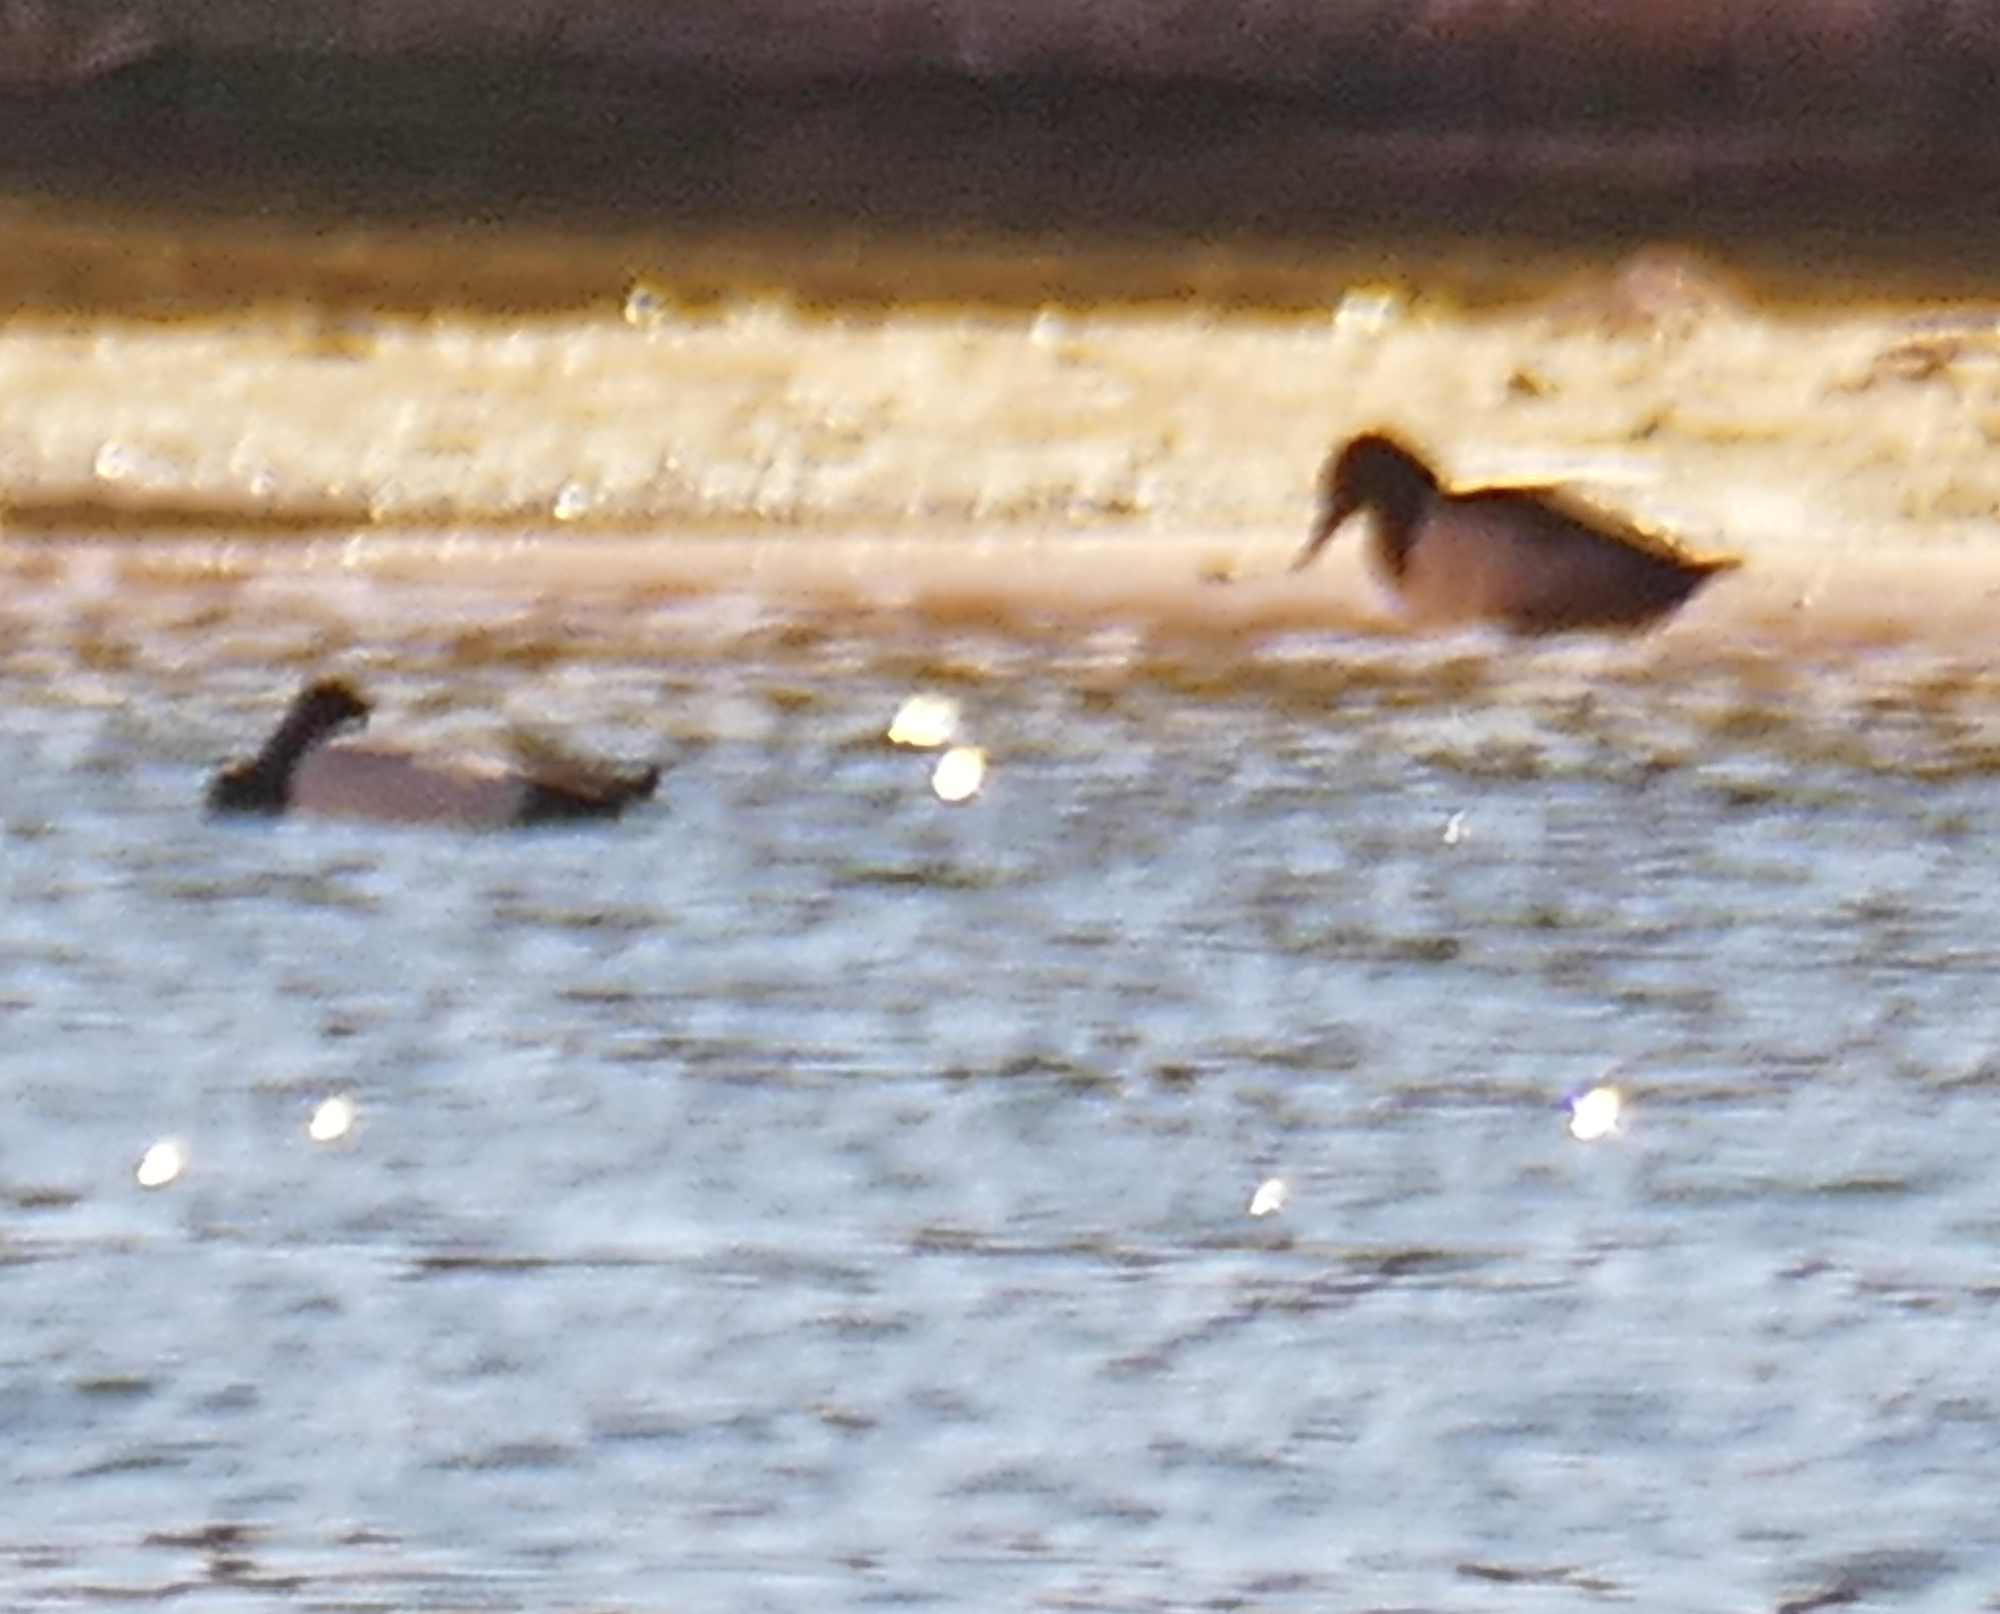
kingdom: Animalia
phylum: Chordata
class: Aves
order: Anseriformes
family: Anatidae
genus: Aythya
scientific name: Aythya valisineria
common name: Canvasback
